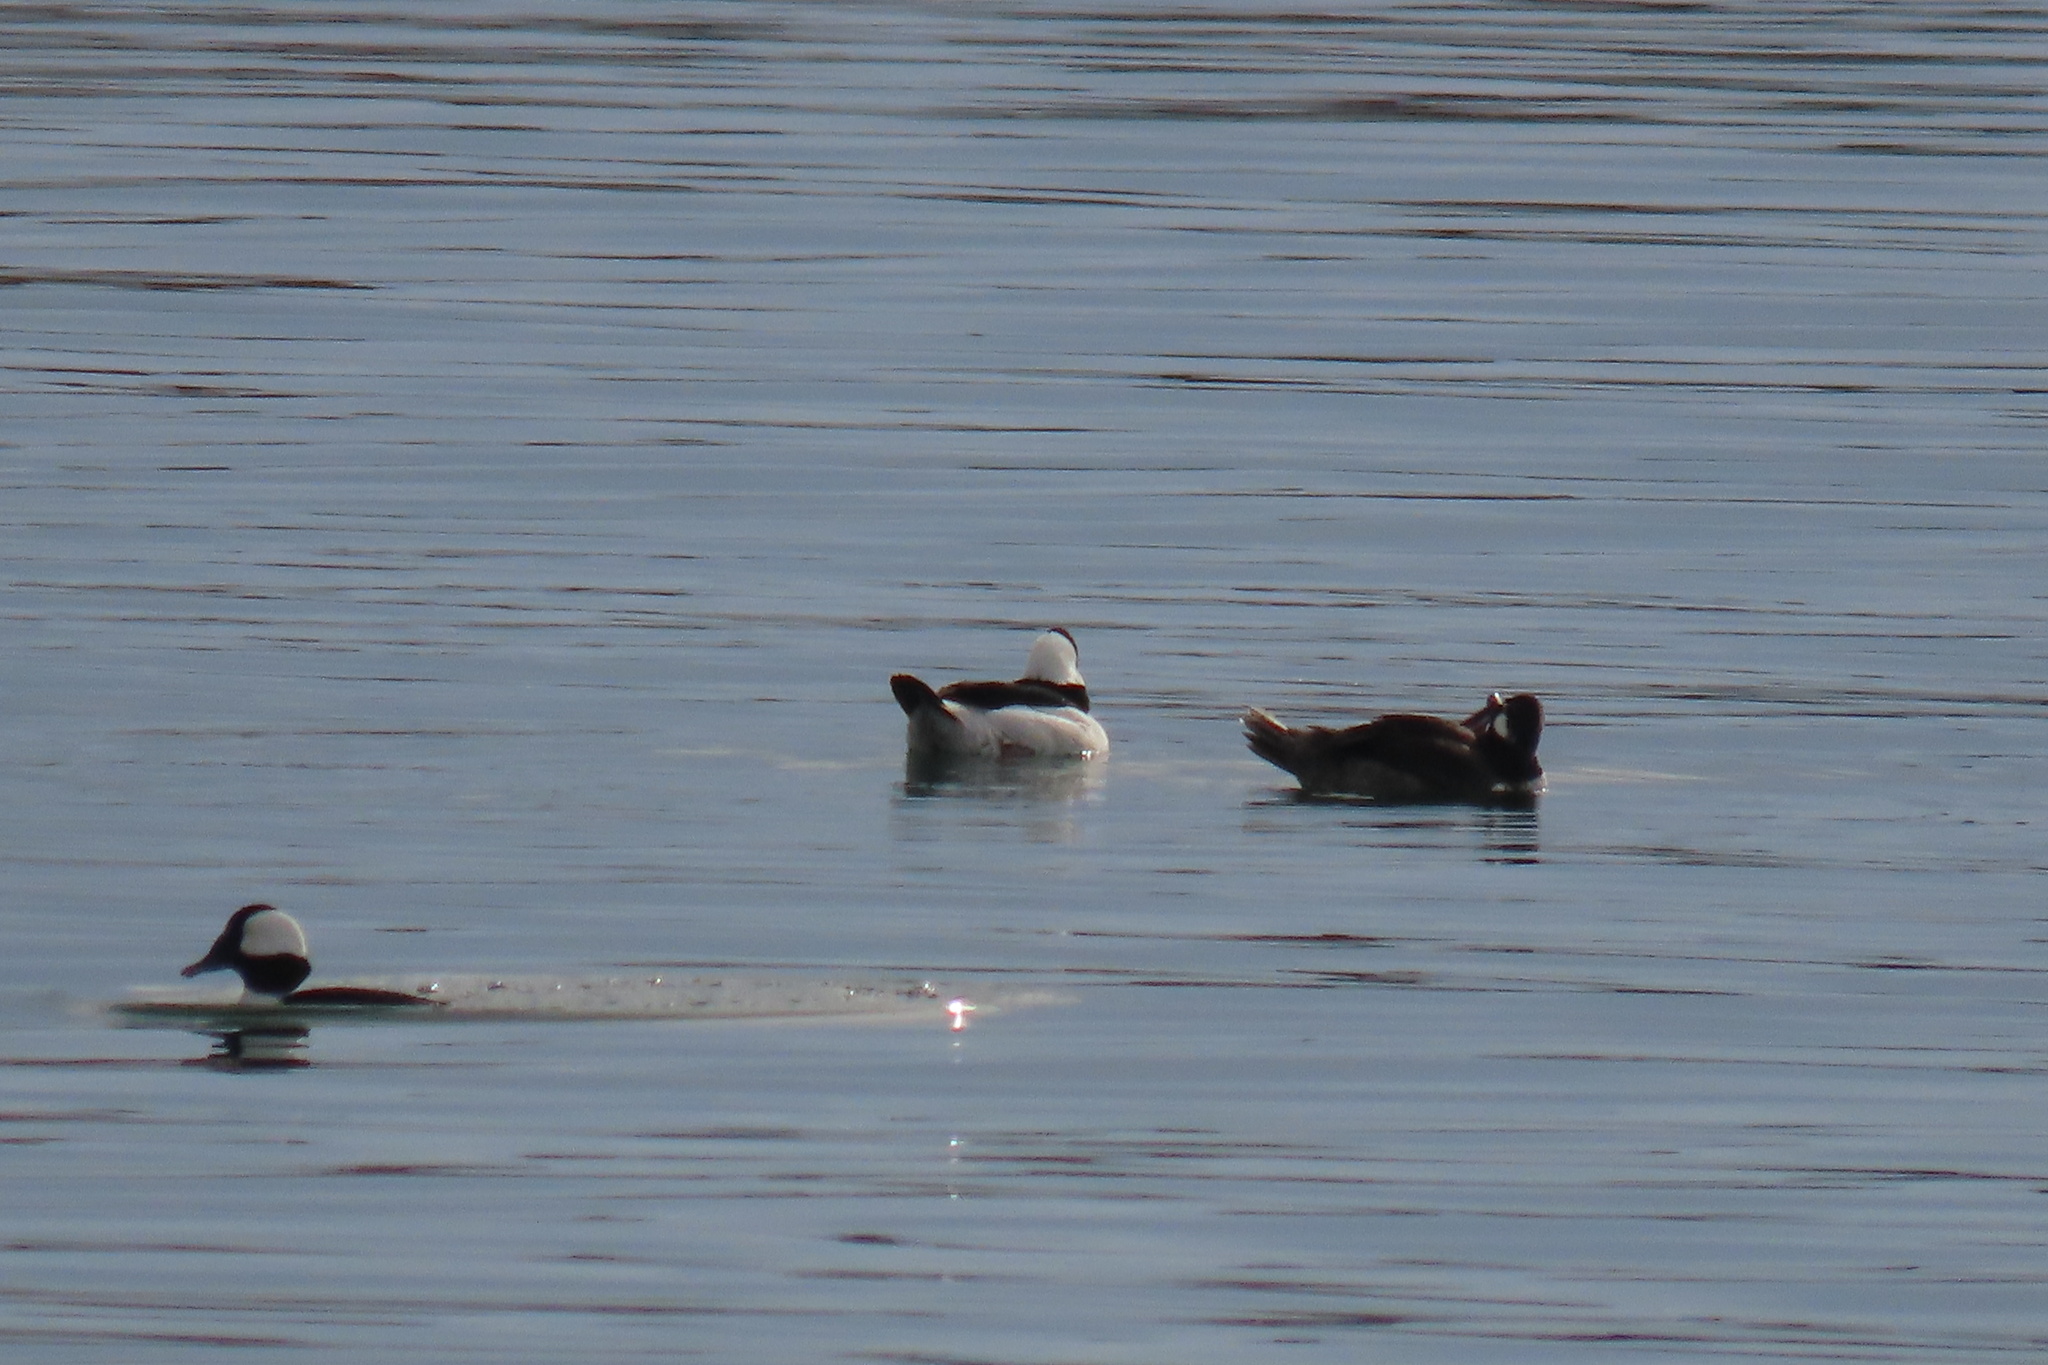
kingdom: Animalia
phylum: Chordata
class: Aves
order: Anseriformes
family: Anatidae
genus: Bucephala
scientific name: Bucephala albeola
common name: Bufflehead
